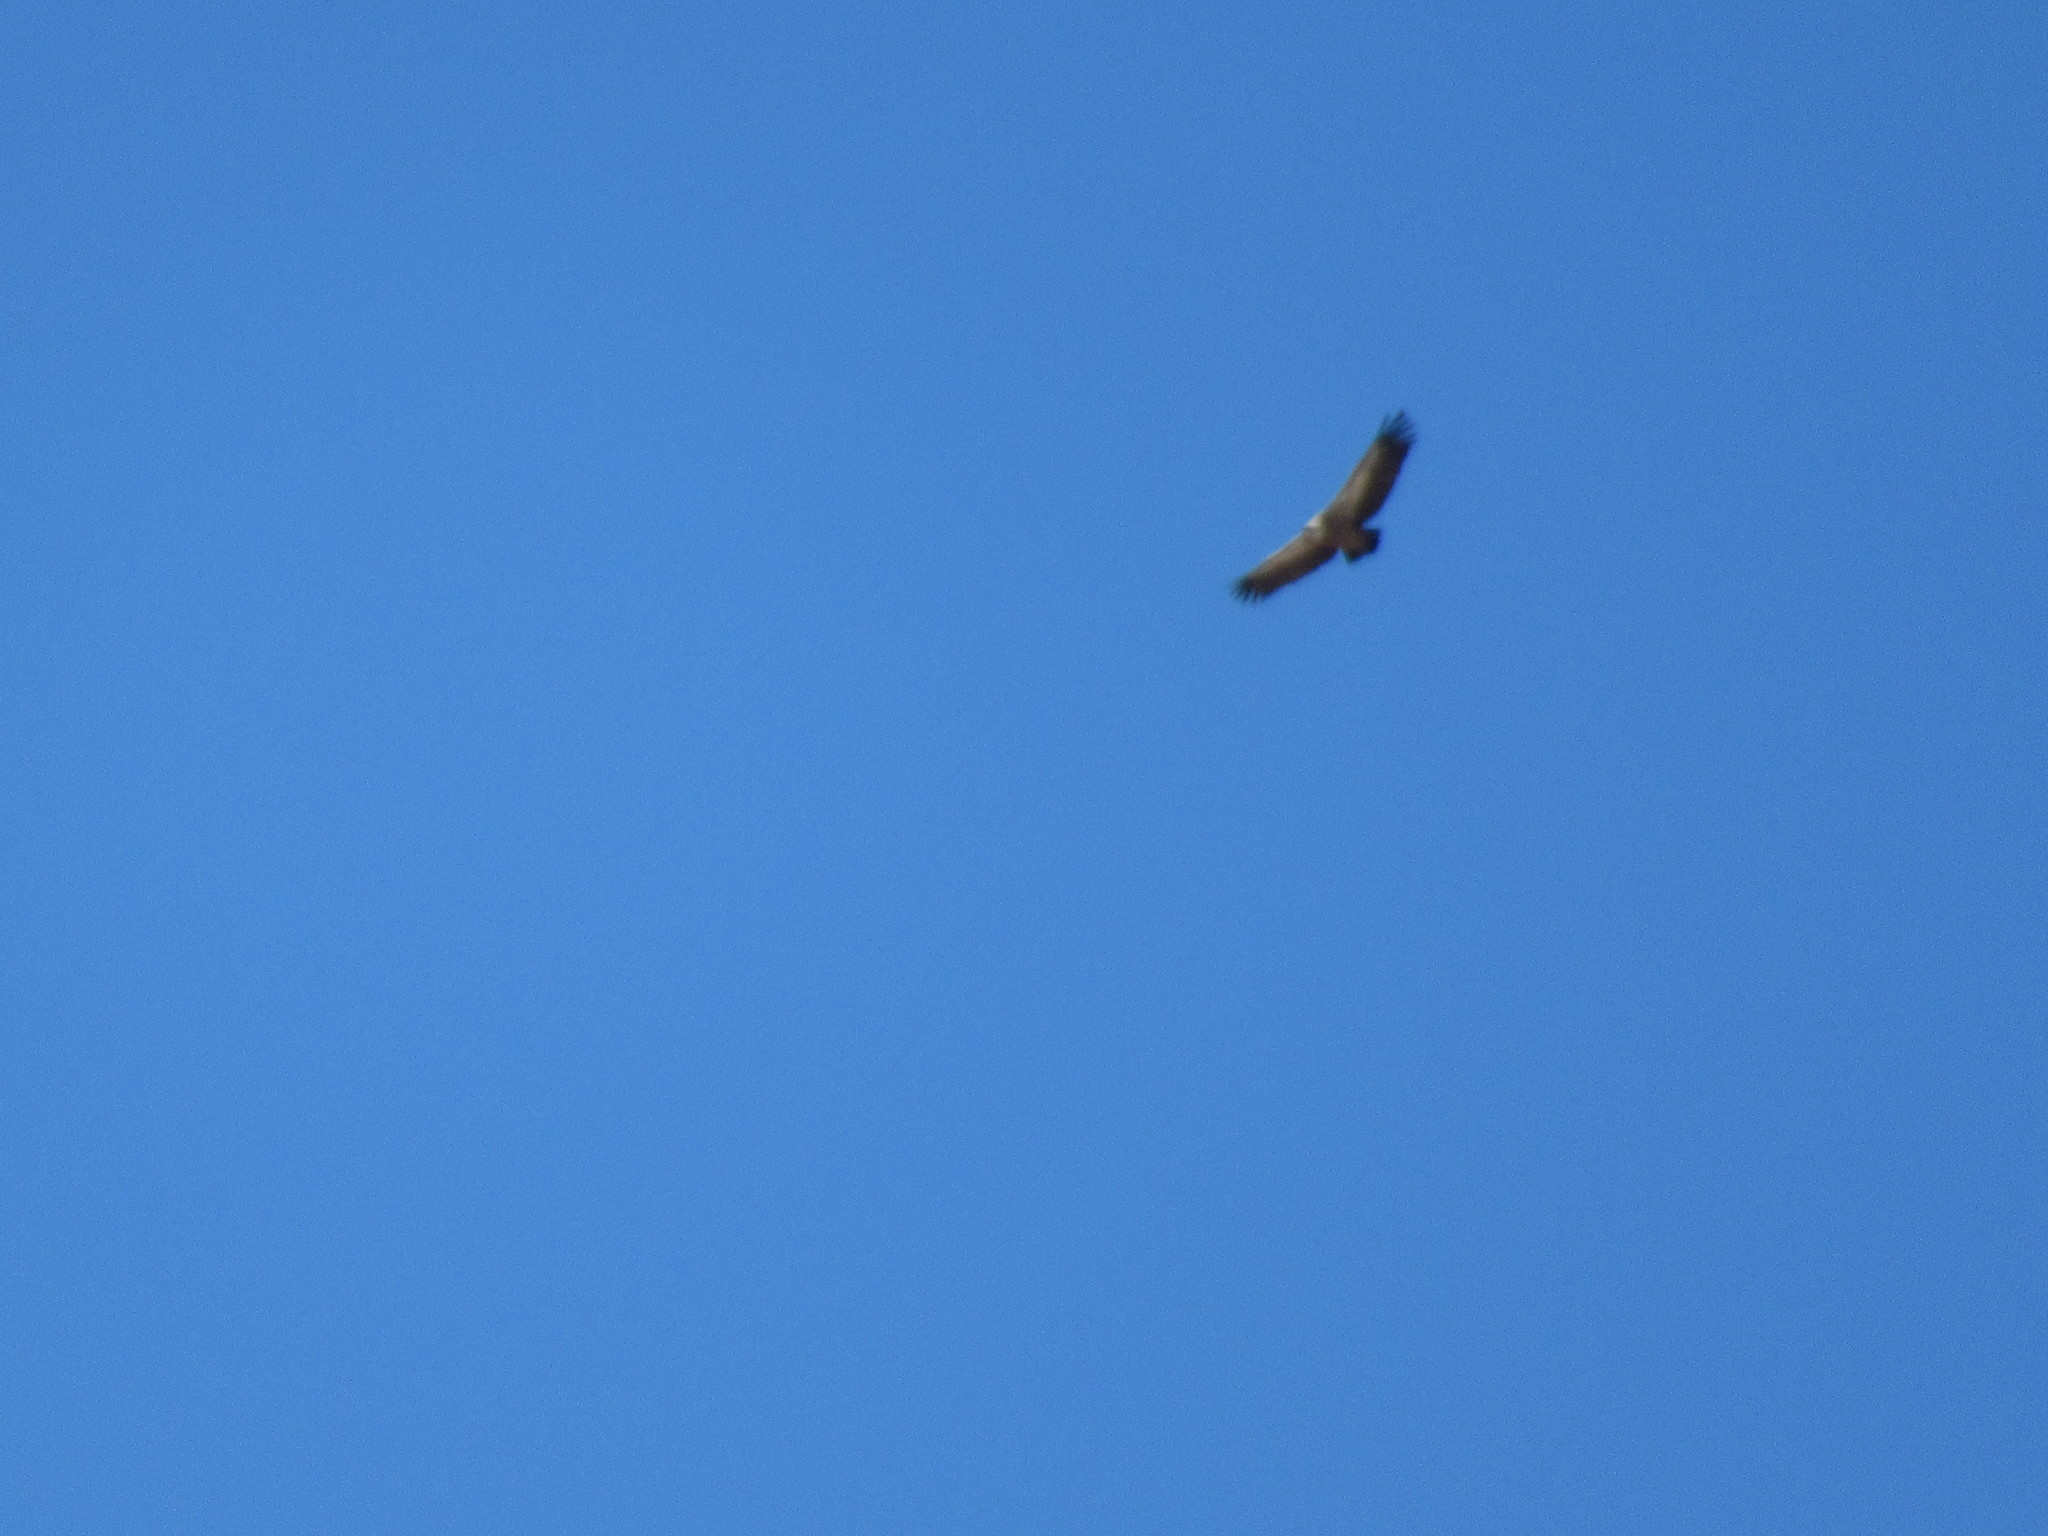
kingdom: Animalia
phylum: Chordata
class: Aves
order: Accipitriformes
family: Accipitridae
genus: Gyps
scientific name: Gyps fulvus
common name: Griffon vulture
